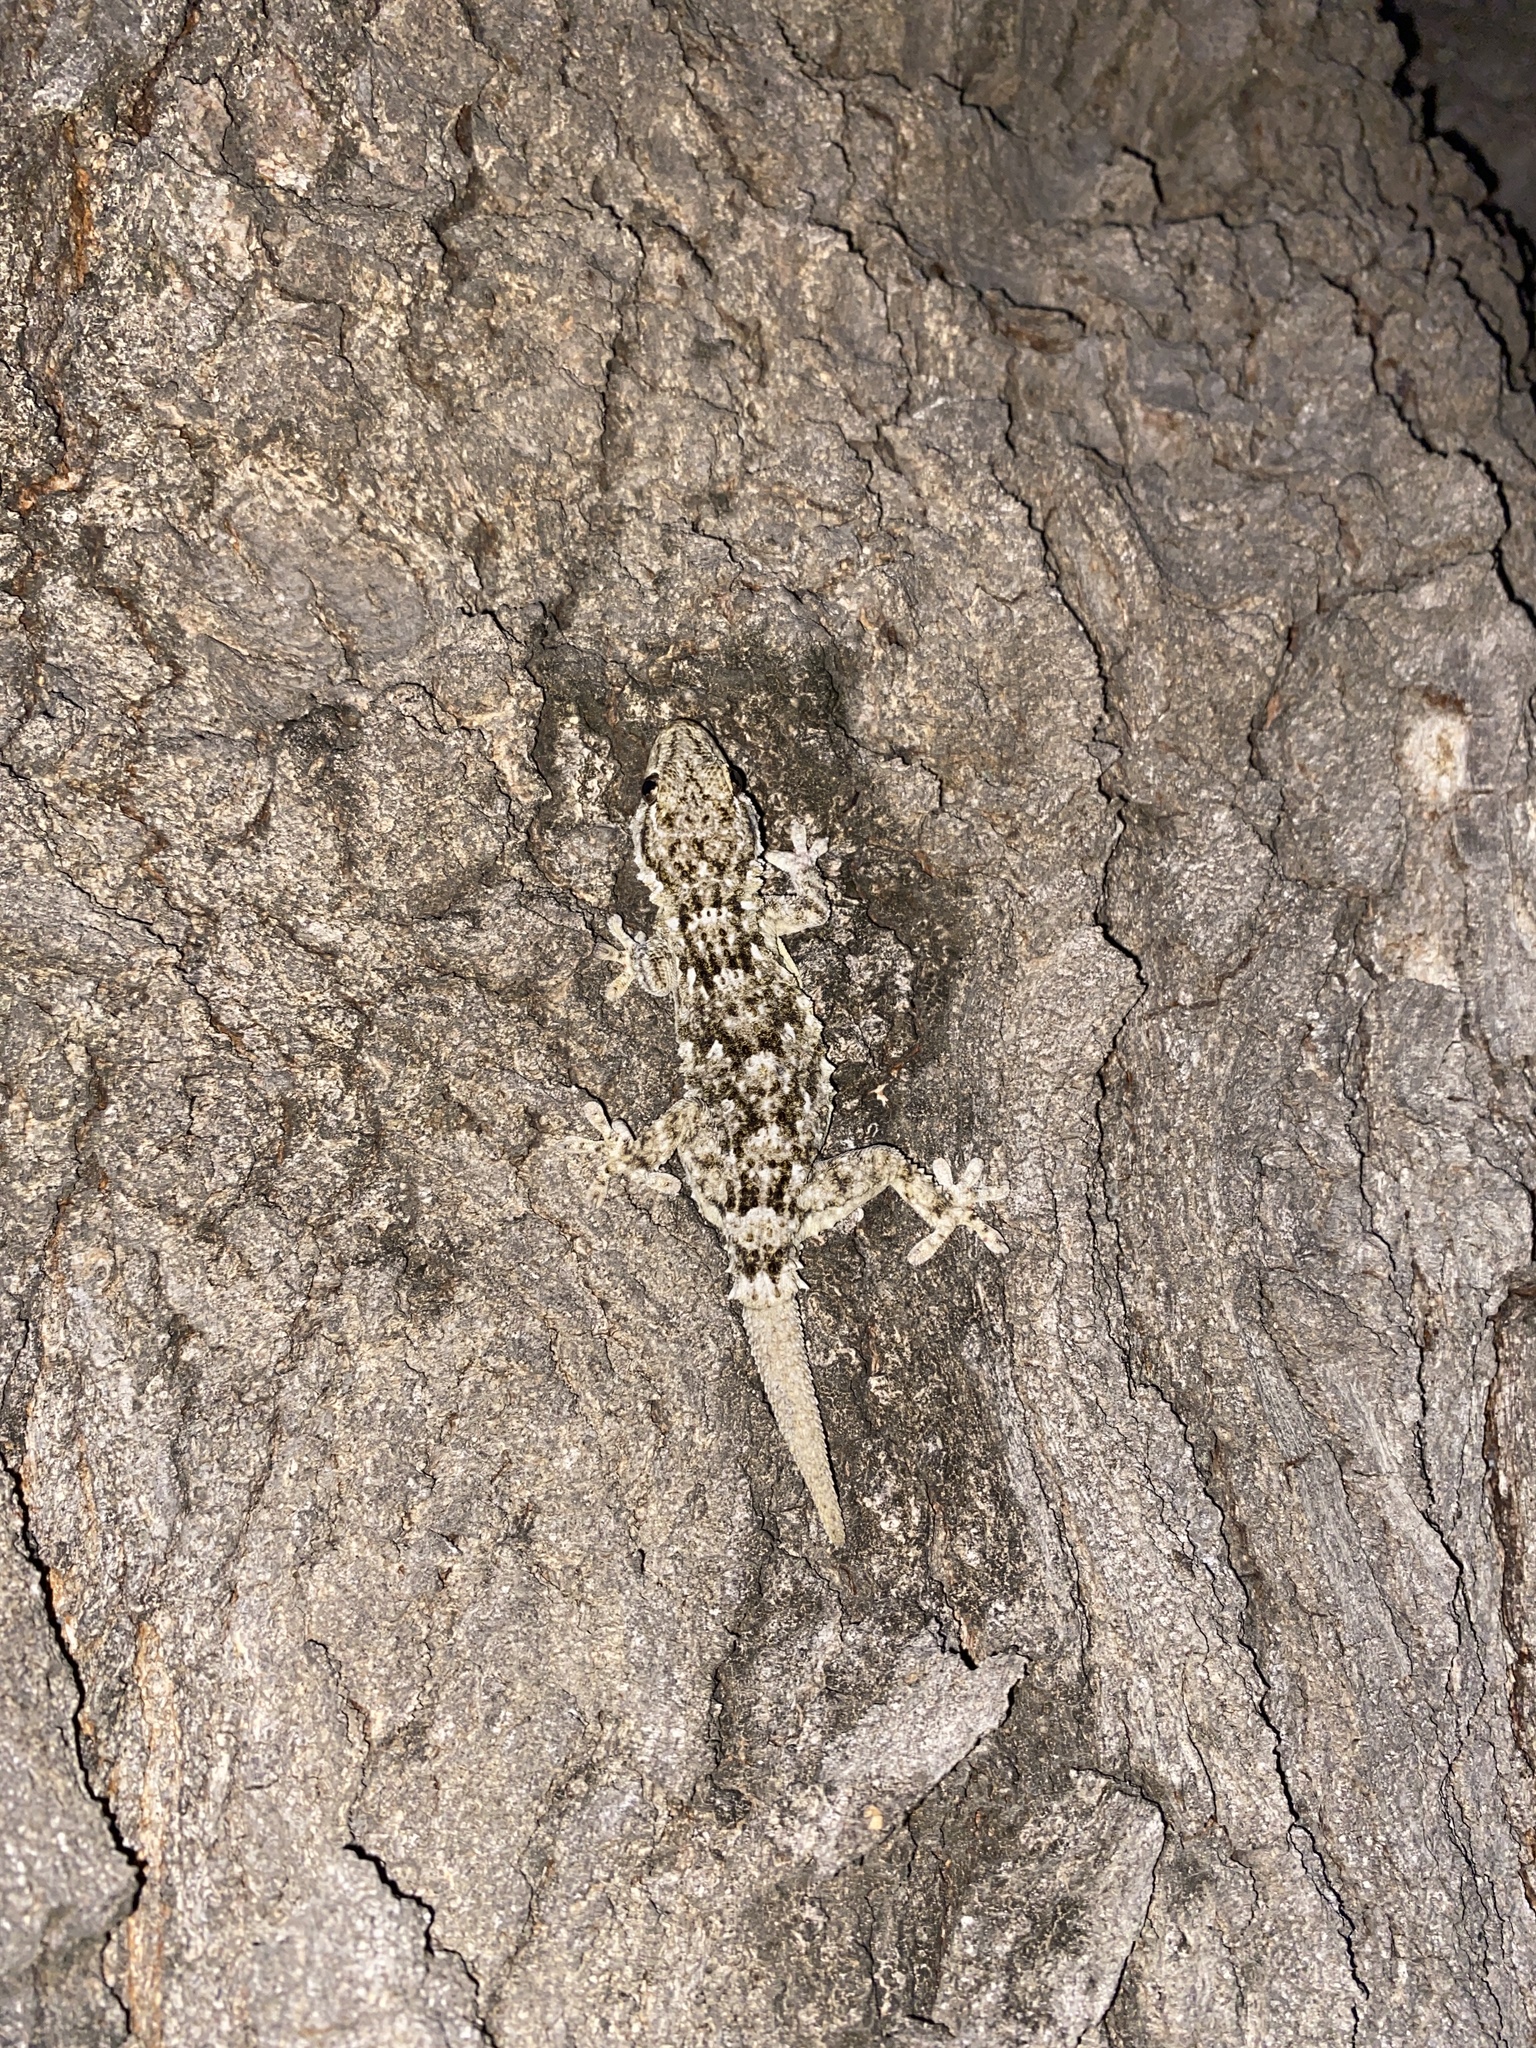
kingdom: Animalia
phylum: Chordata
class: Squamata
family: Phyllodactylidae
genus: Tarentola
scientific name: Tarentola mauritanica
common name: Moorish gecko
